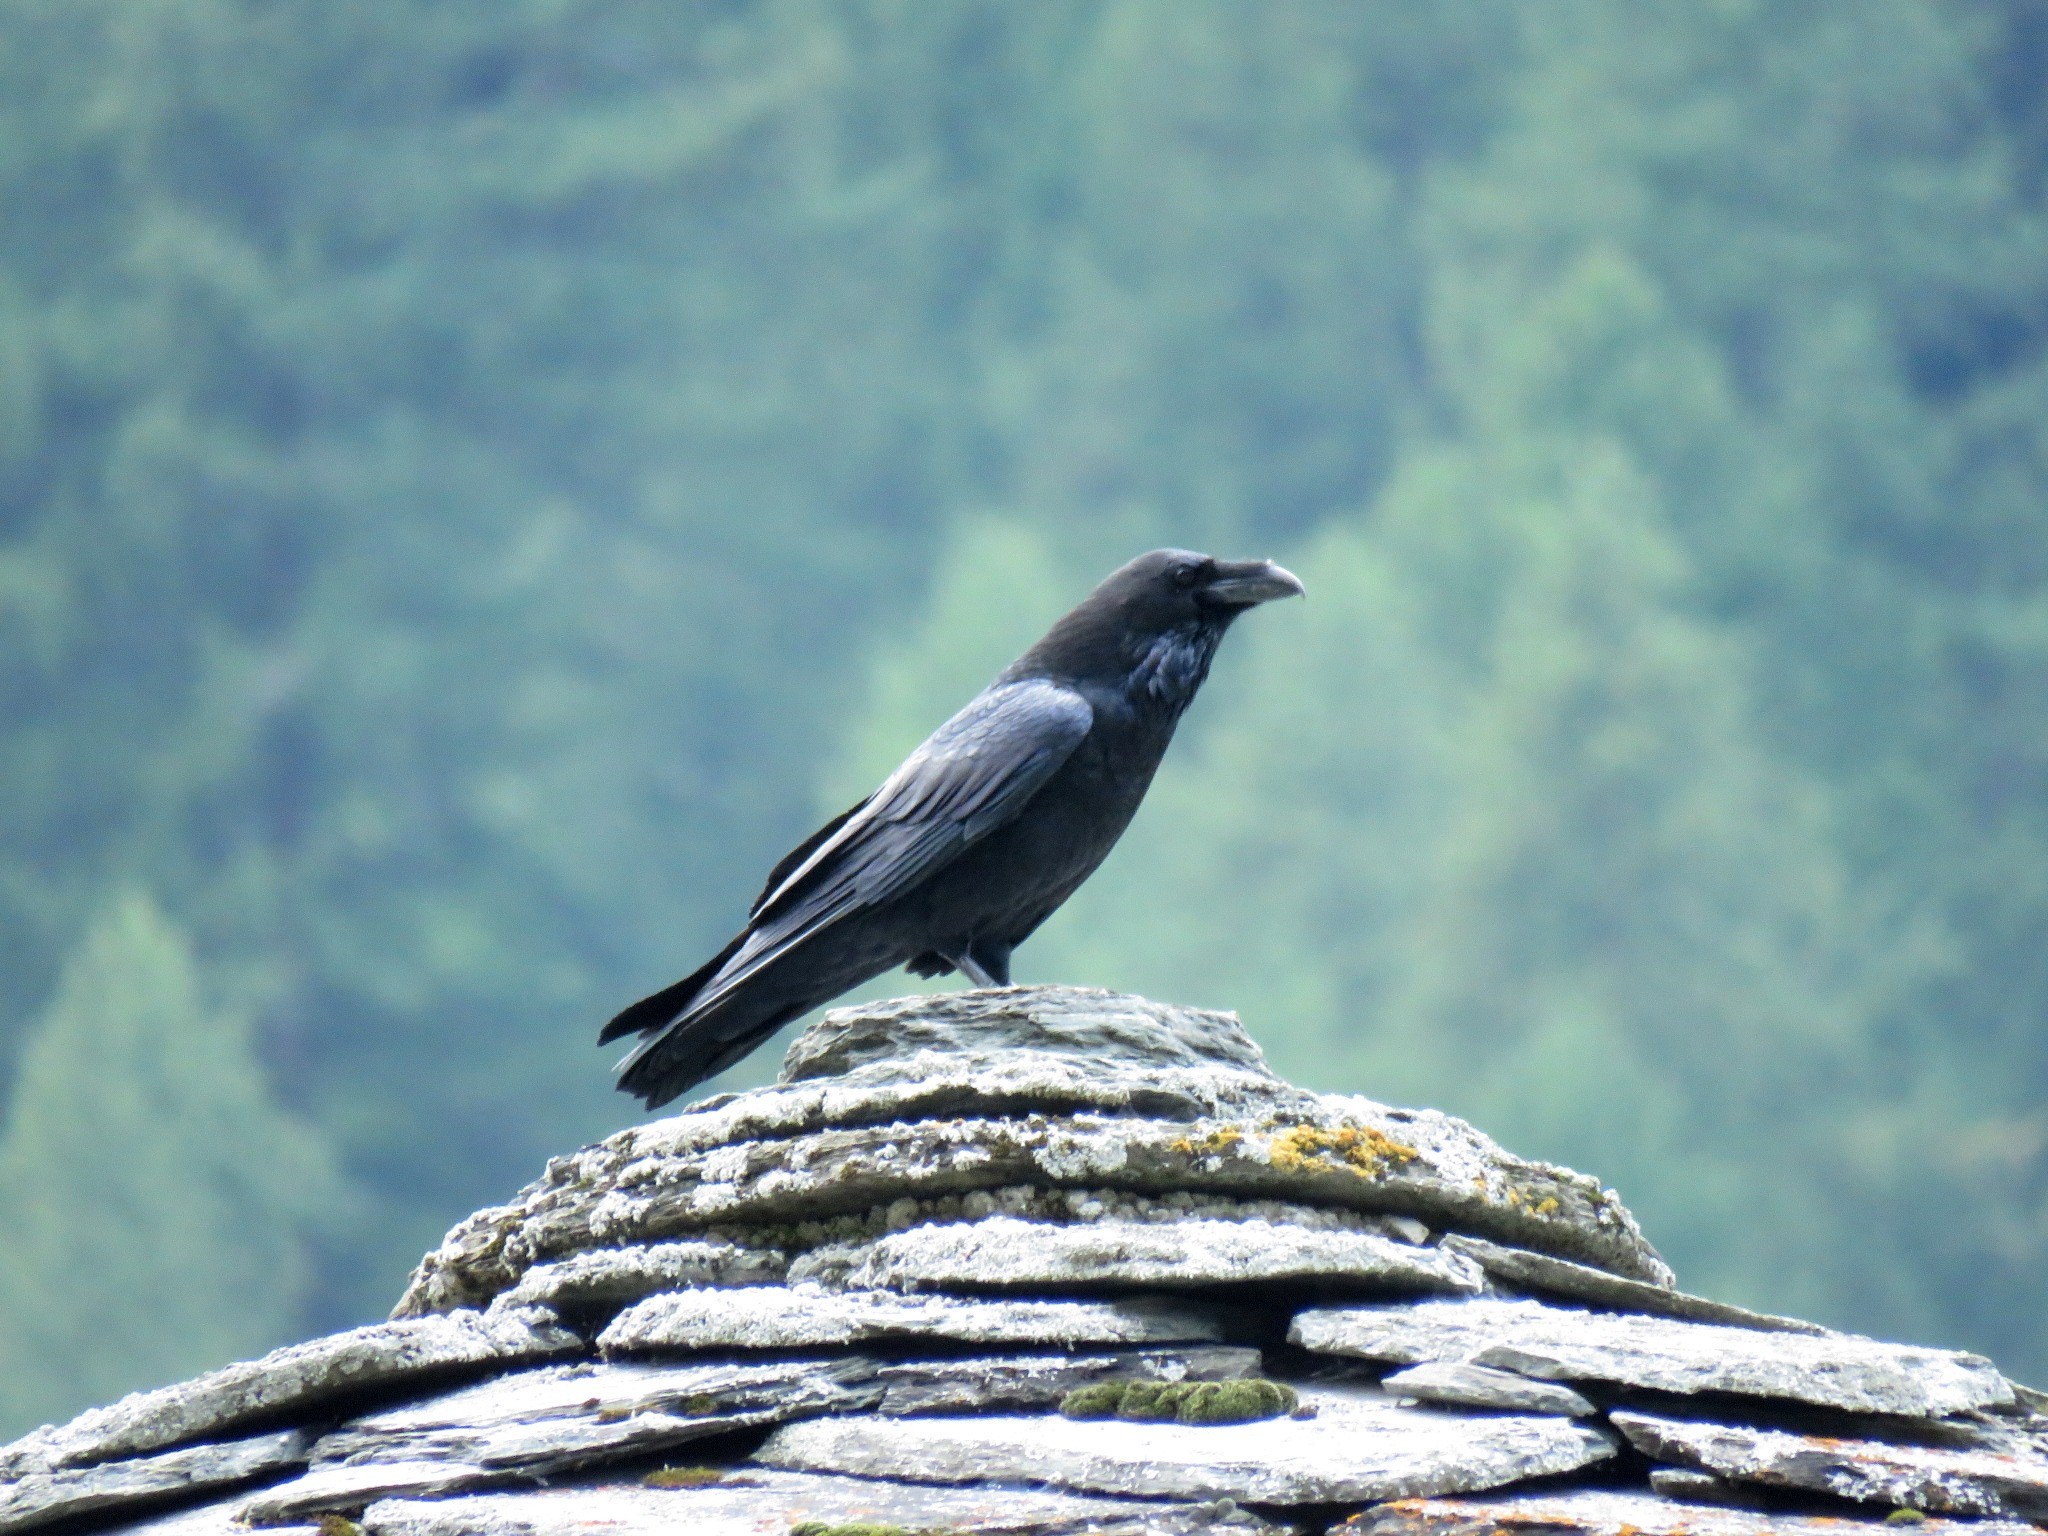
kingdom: Animalia
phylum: Chordata
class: Aves
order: Passeriformes
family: Corvidae
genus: Corvus
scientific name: Corvus corax
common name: Common raven
